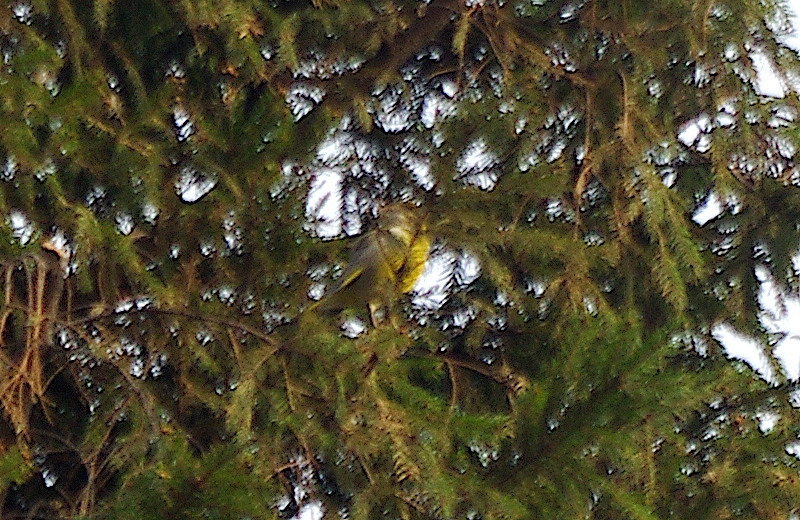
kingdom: Plantae
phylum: Tracheophyta
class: Liliopsida
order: Poales
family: Poaceae
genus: Chloris
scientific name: Chloris chloris
